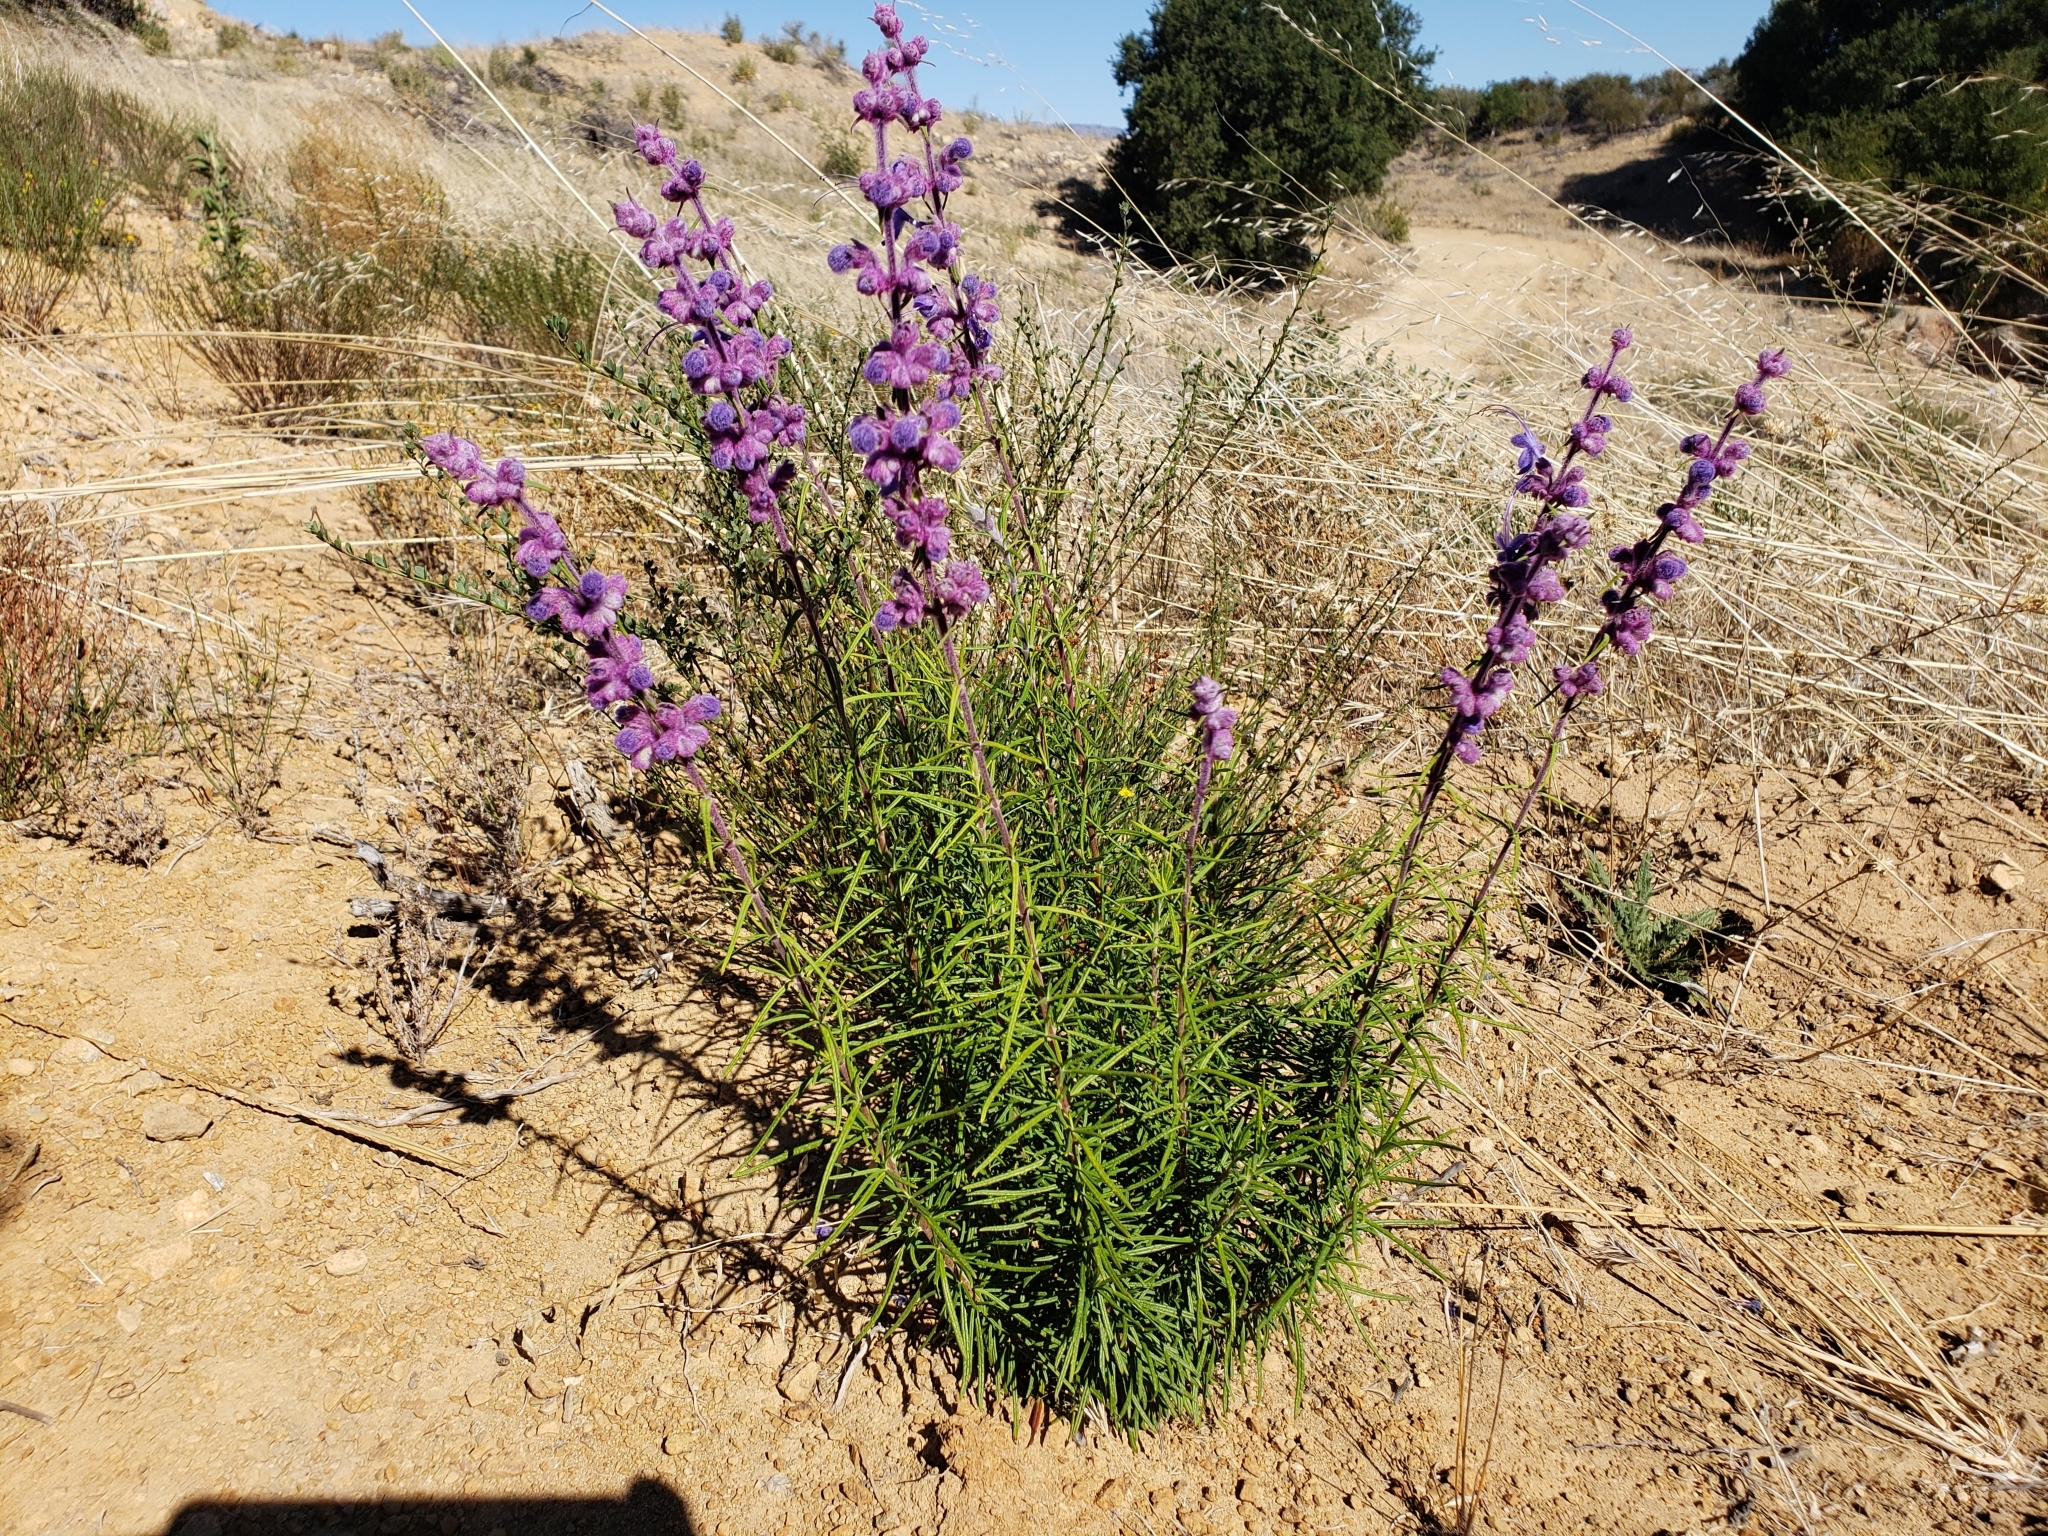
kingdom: Plantae
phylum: Tracheophyta
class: Magnoliopsida
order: Lamiales
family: Lamiaceae
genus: Trichostema
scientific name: Trichostema lanatum
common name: Woolly bluecurls
